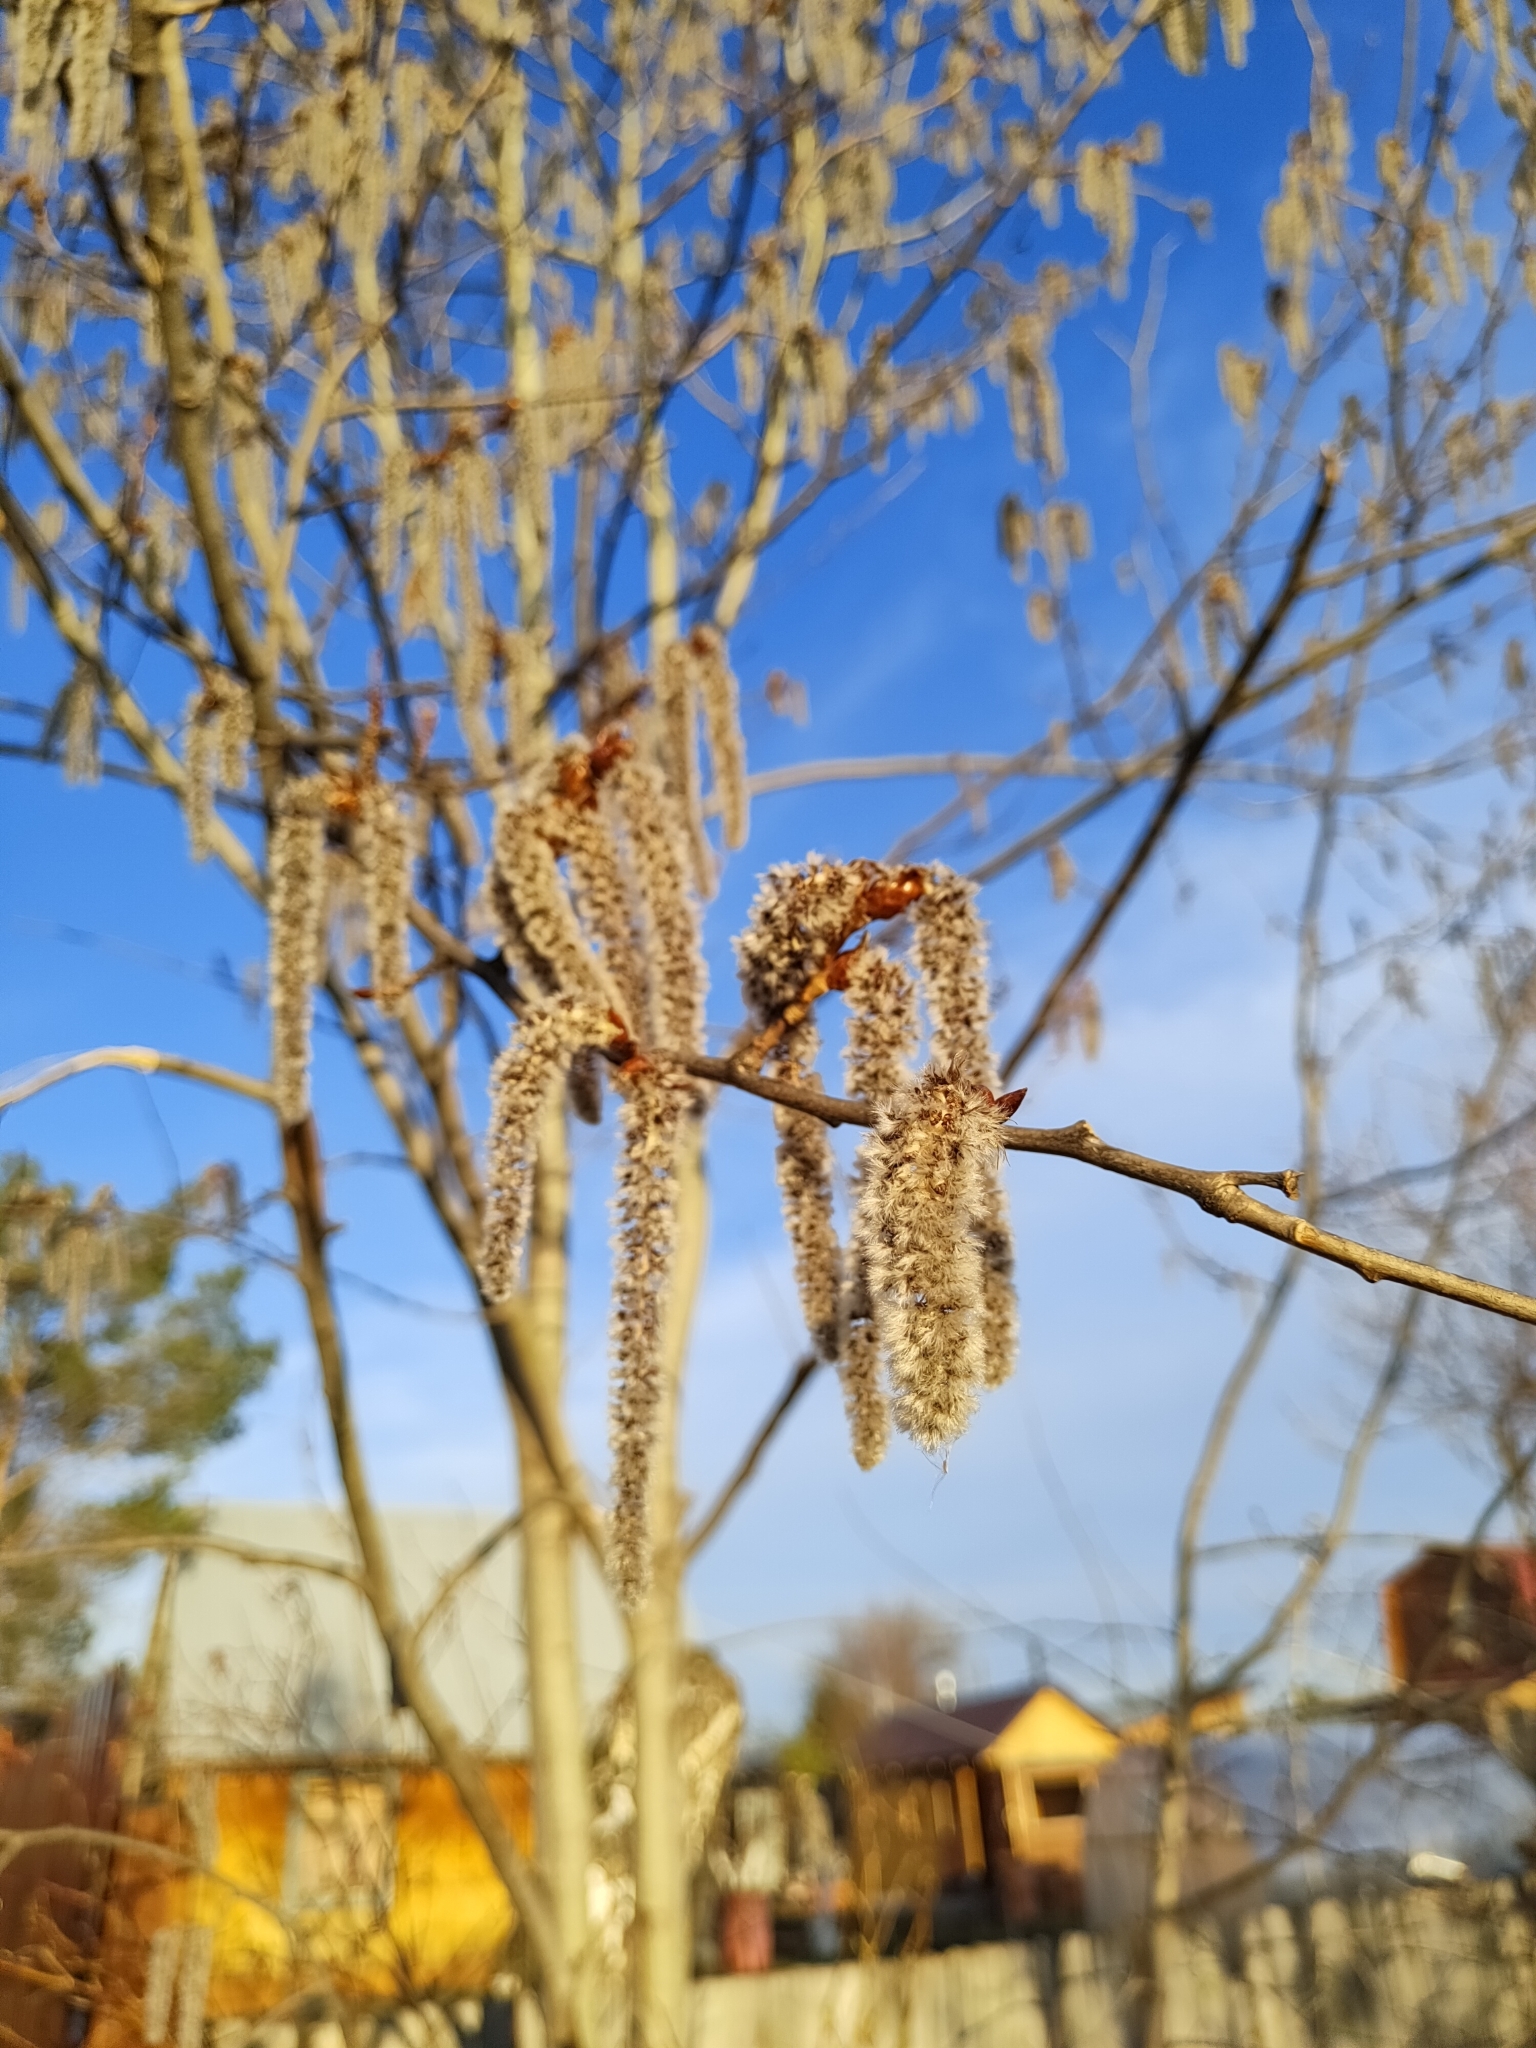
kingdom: Plantae
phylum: Tracheophyta
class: Magnoliopsida
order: Malpighiales
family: Salicaceae
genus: Populus
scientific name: Populus tremula
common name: European aspen
